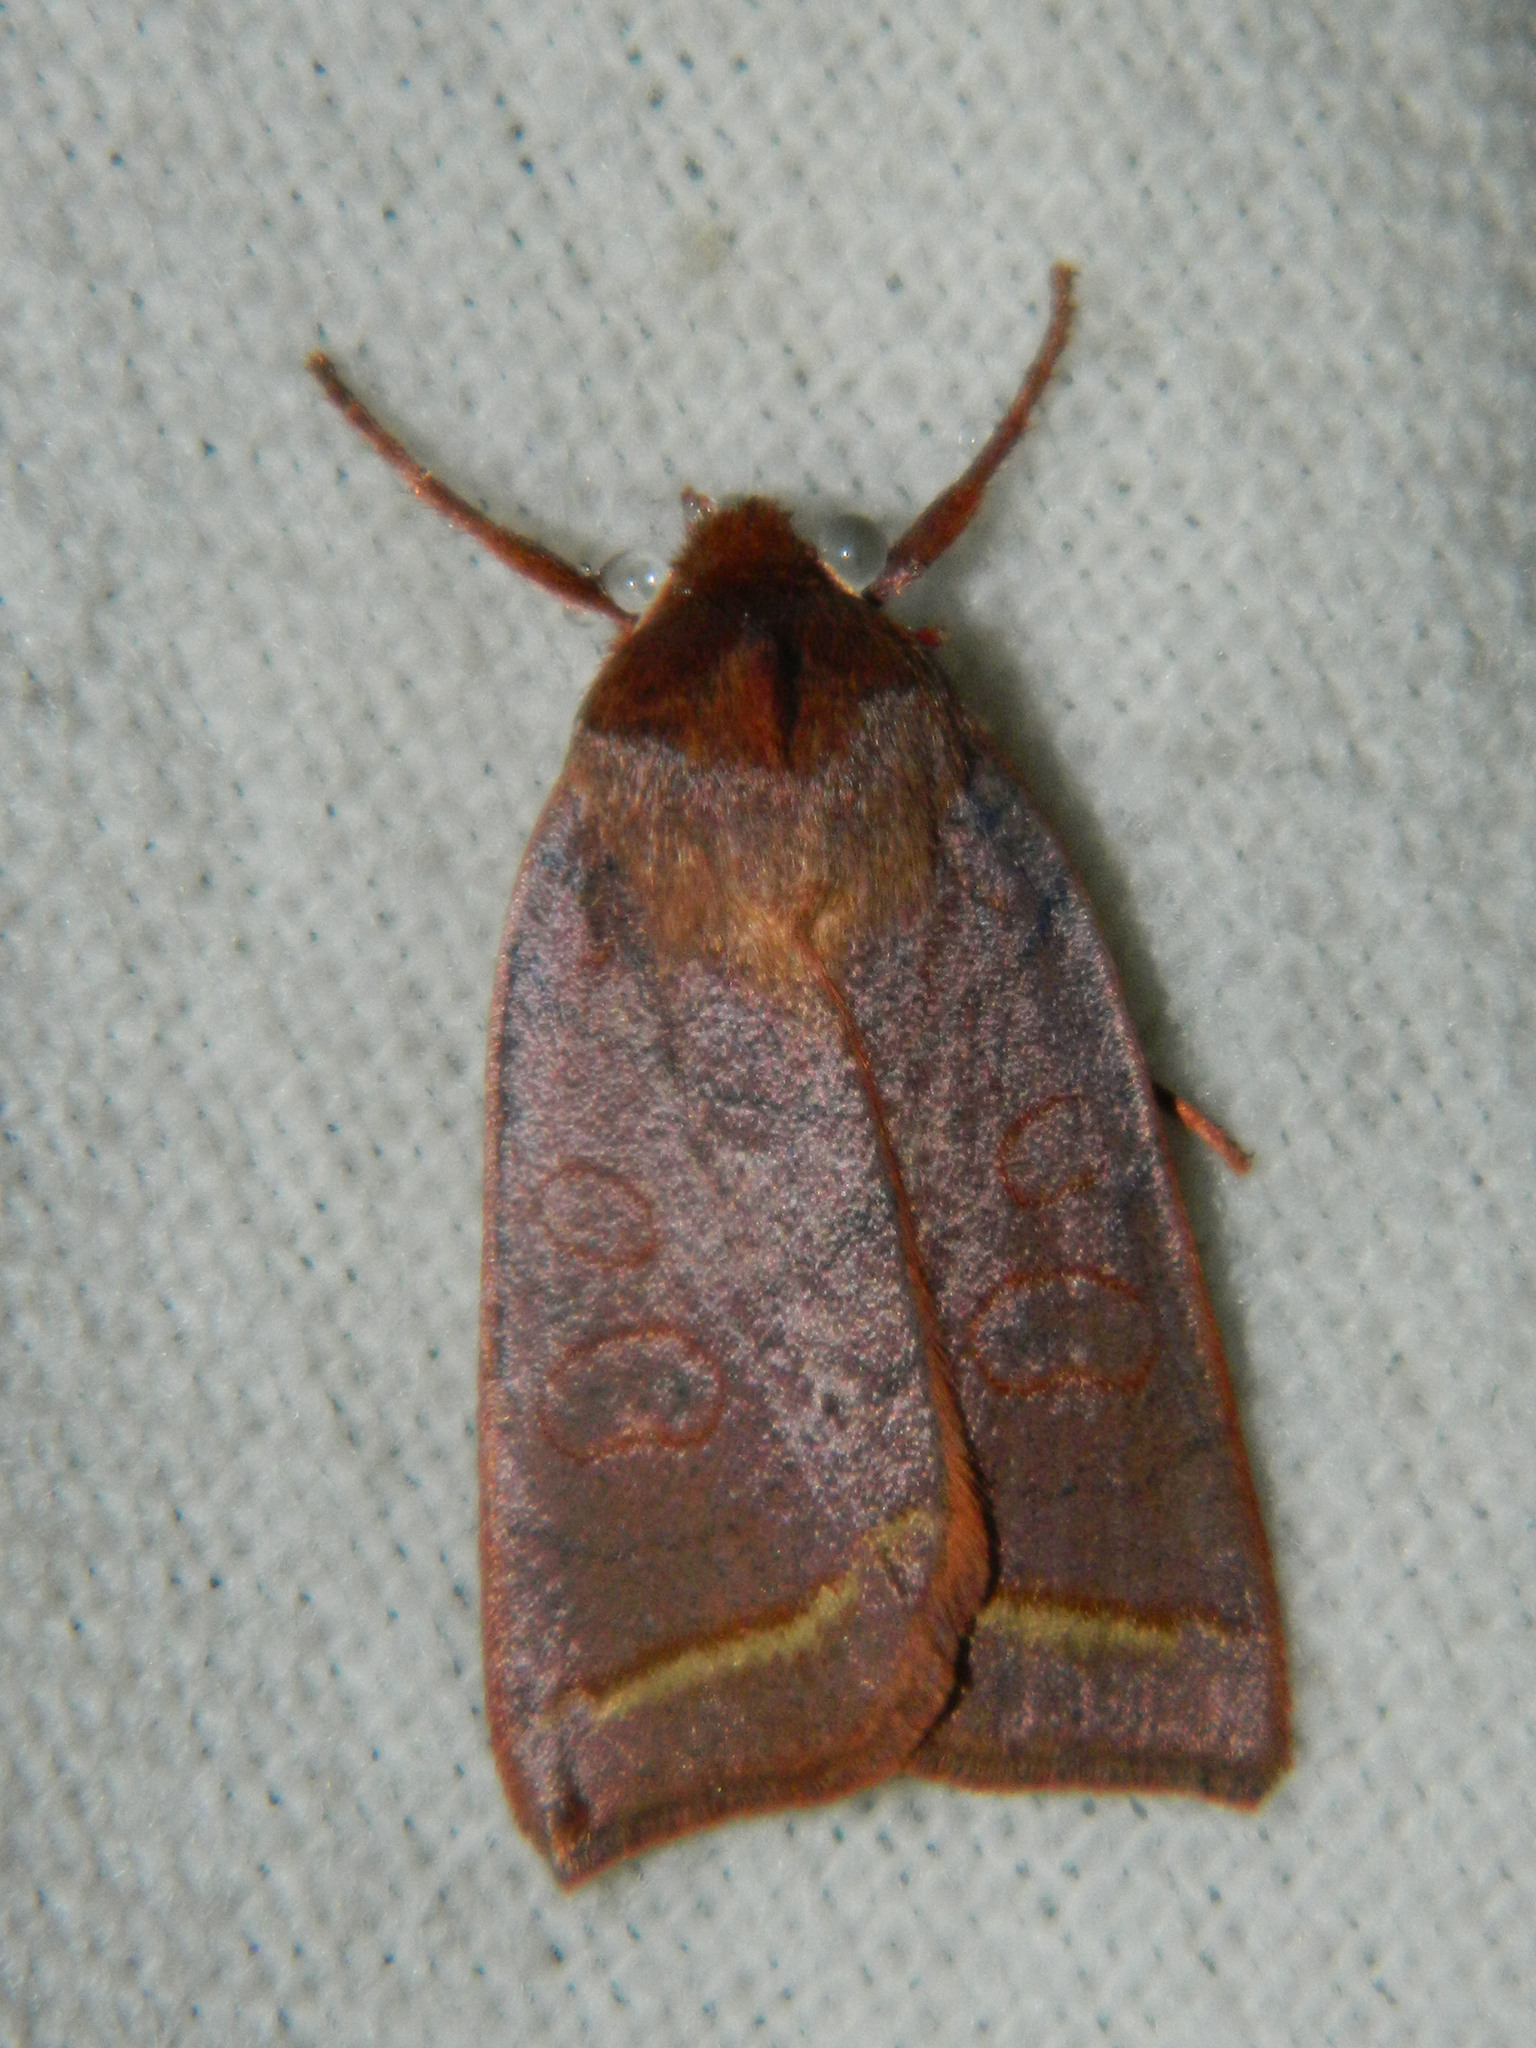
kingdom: Animalia
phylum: Arthropoda
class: Insecta
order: Lepidoptera
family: Noctuidae
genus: Epiglaea
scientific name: Epiglaea apiata
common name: Pointed sallow
